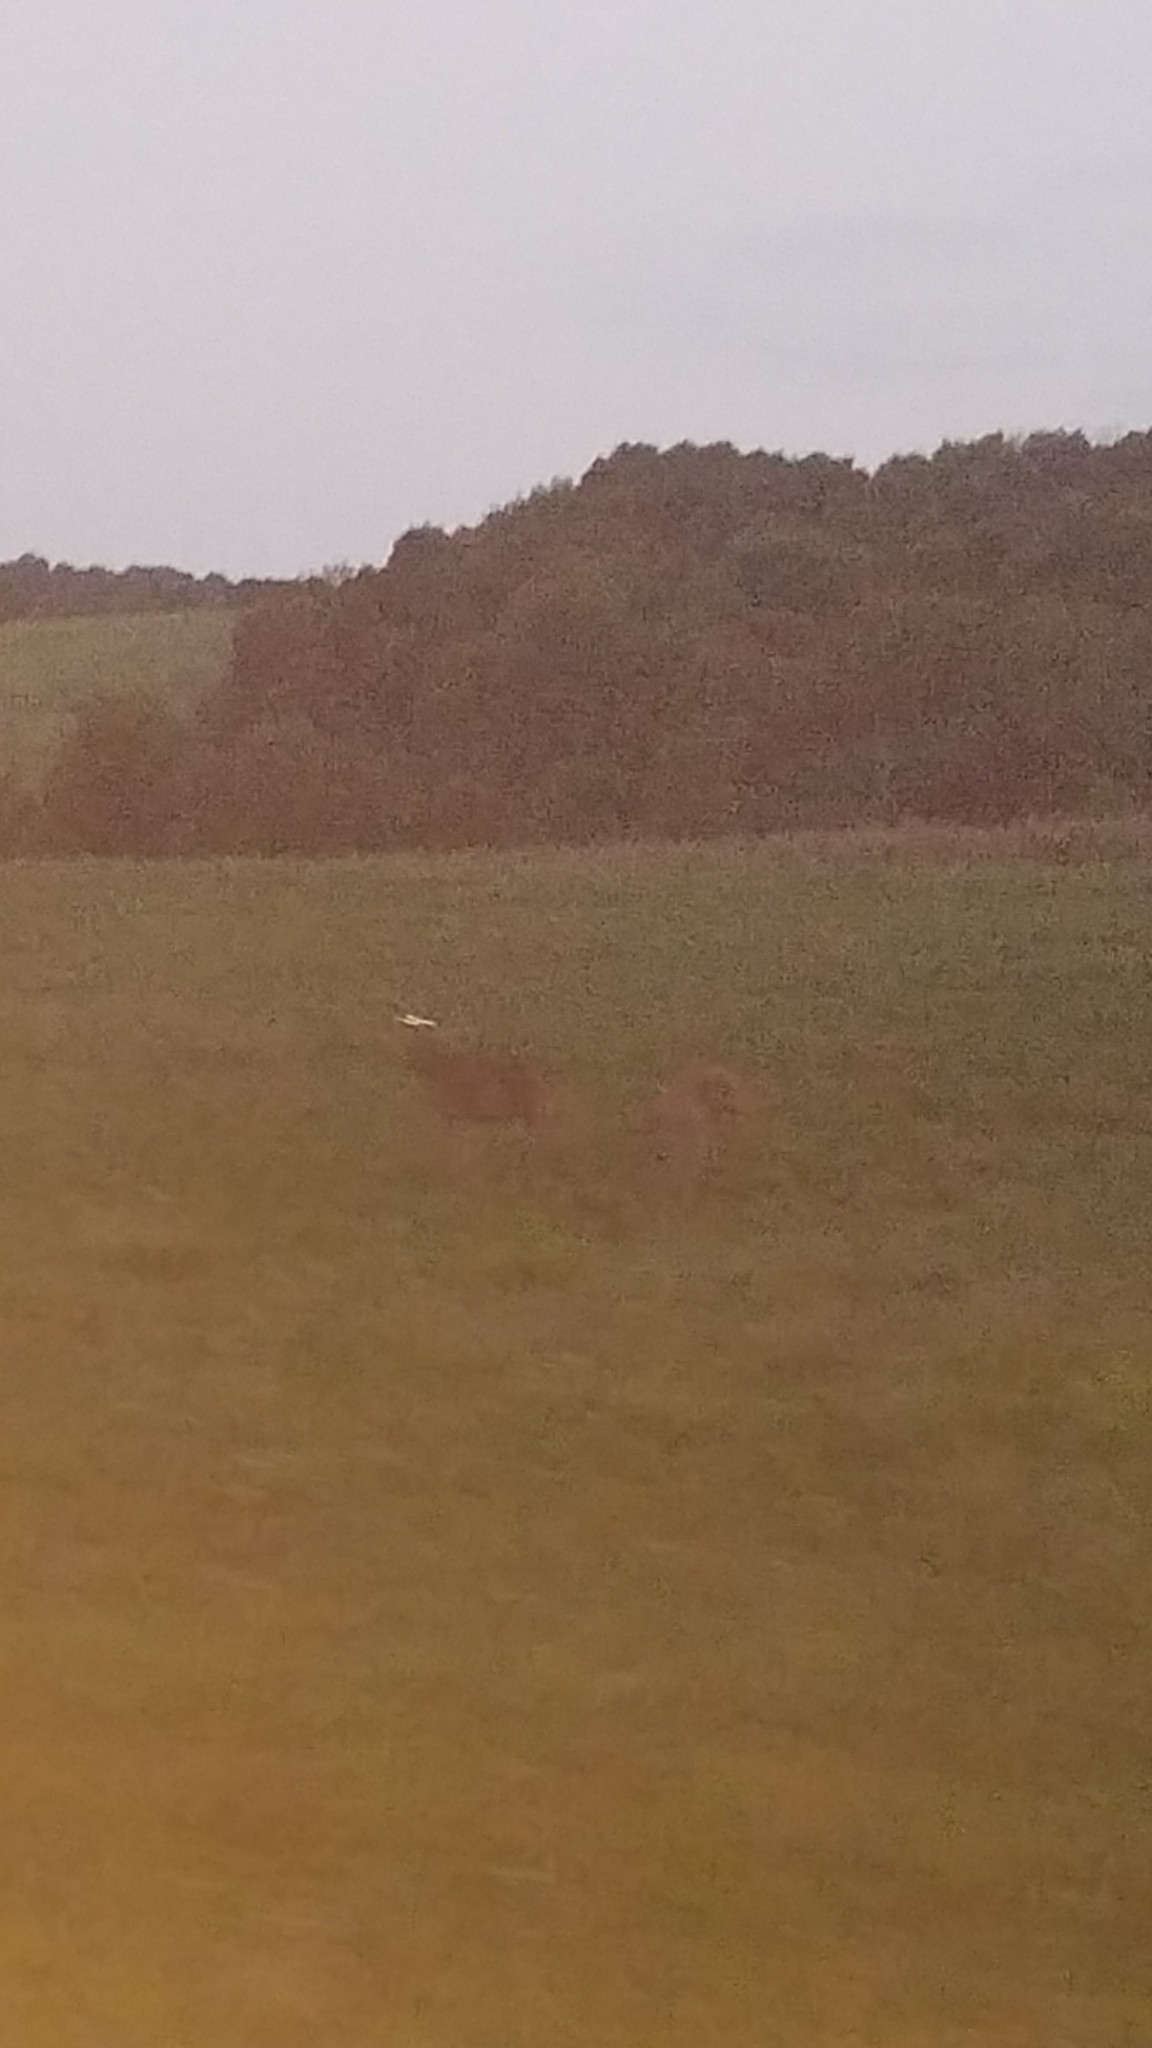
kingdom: Animalia
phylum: Chordata
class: Mammalia
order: Artiodactyla
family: Cervidae
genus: Odocoileus
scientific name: Odocoileus virginianus
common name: White-tailed deer
